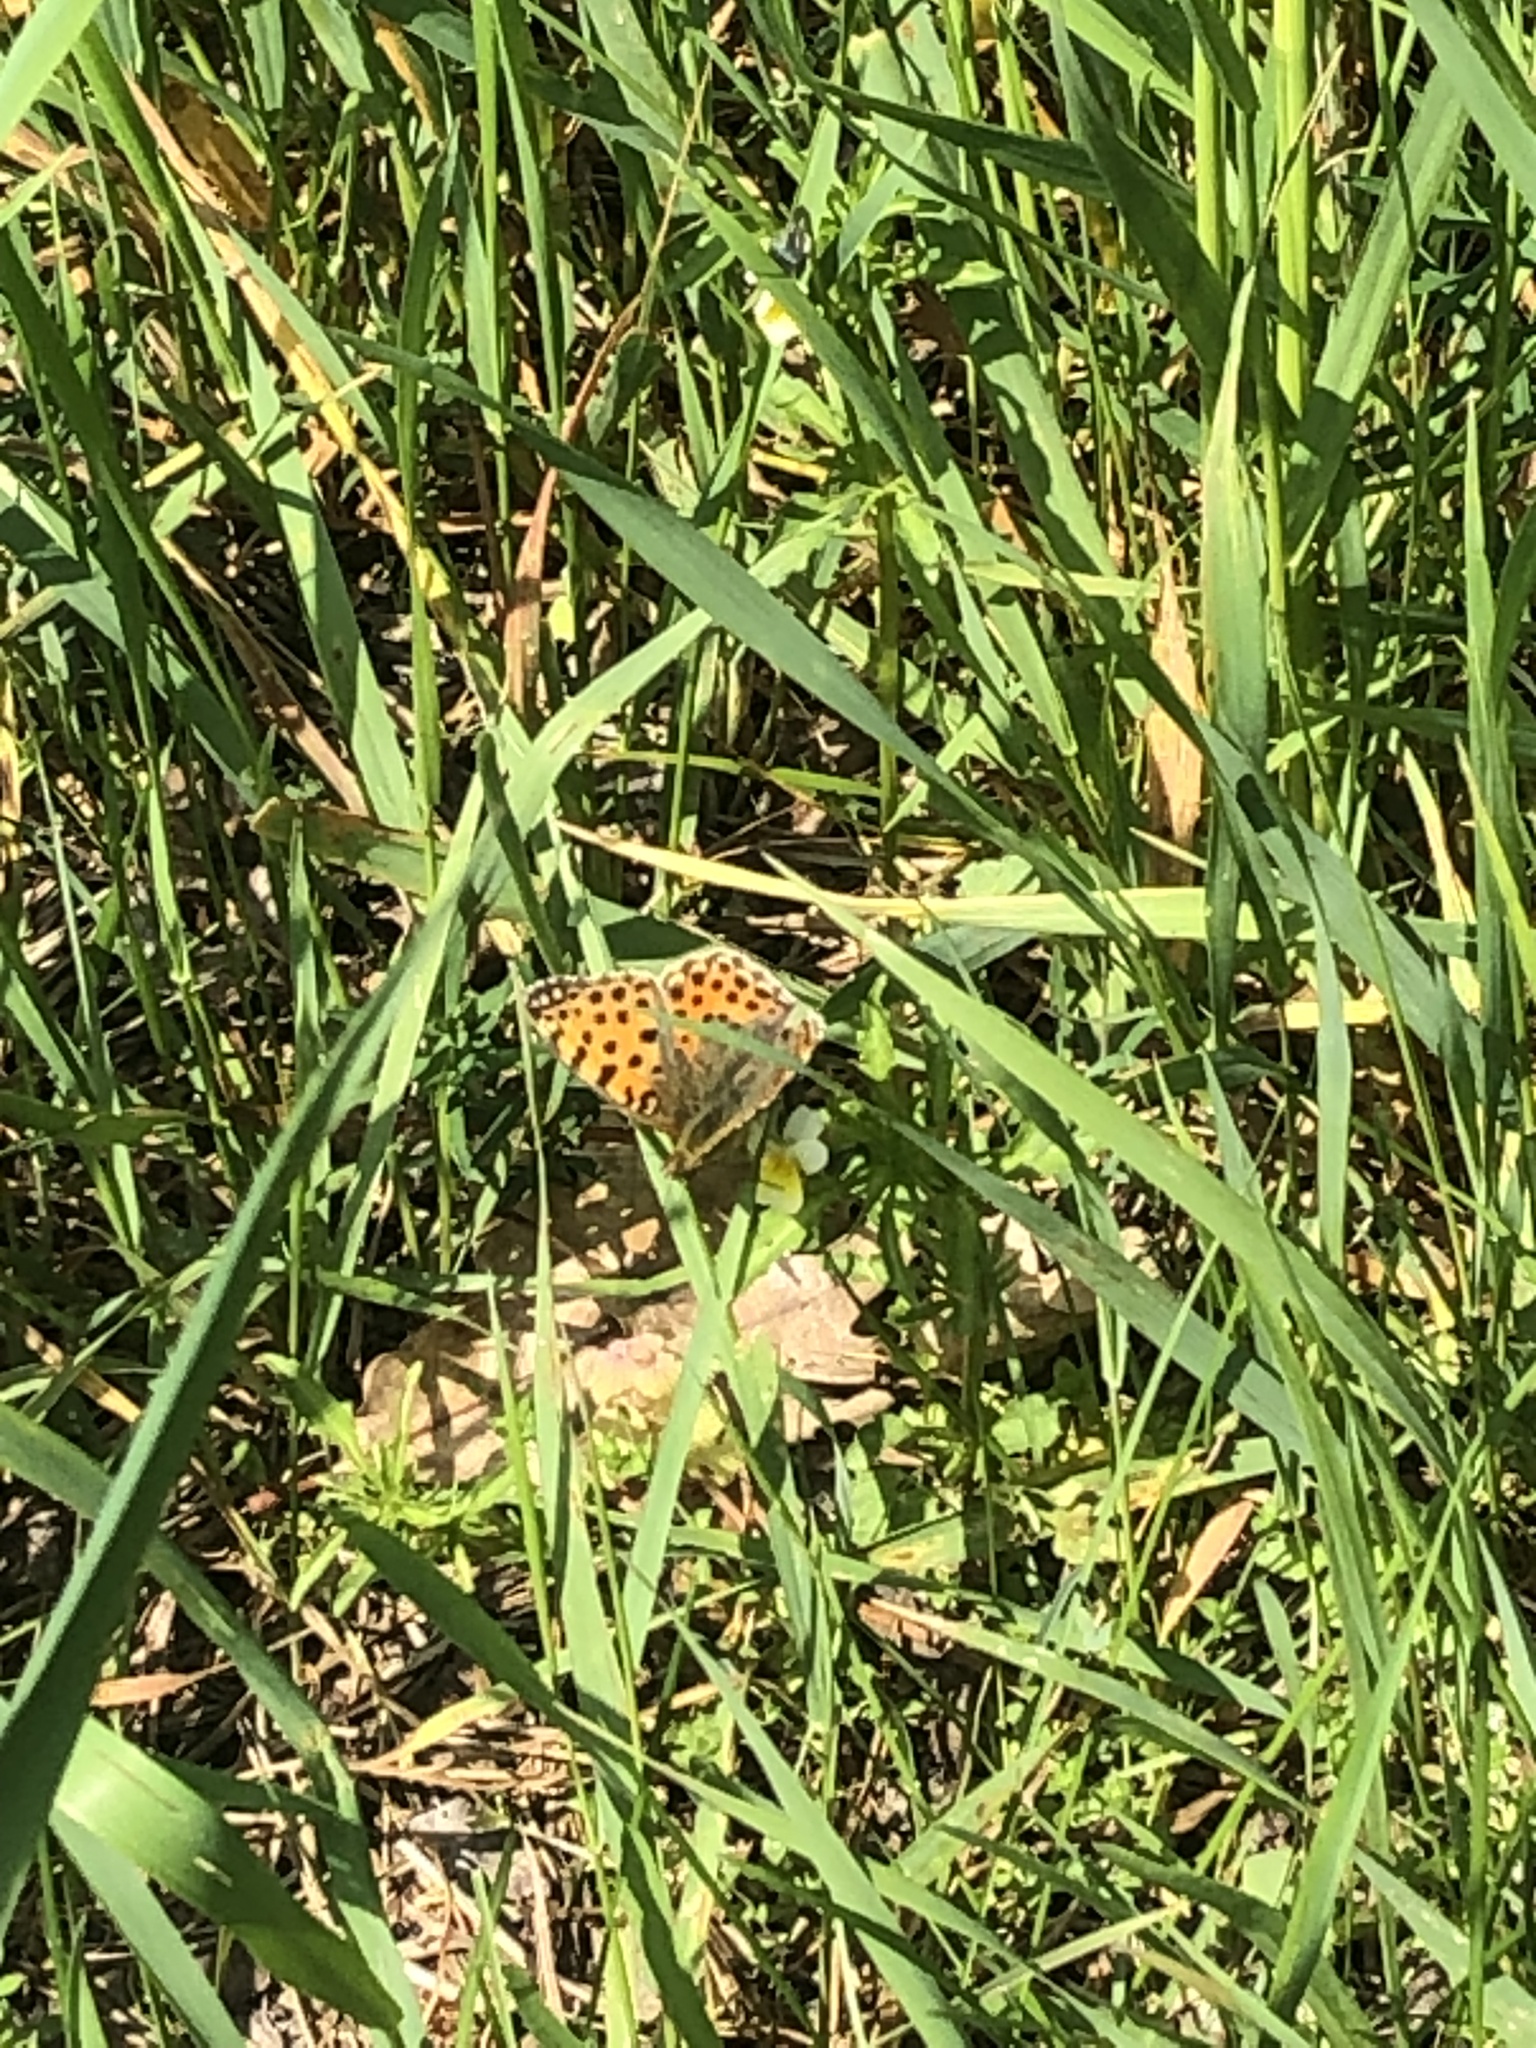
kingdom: Animalia
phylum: Arthropoda
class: Insecta
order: Lepidoptera
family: Nymphalidae
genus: Issoria
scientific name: Issoria lathonia
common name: Queen of spain fritillary
